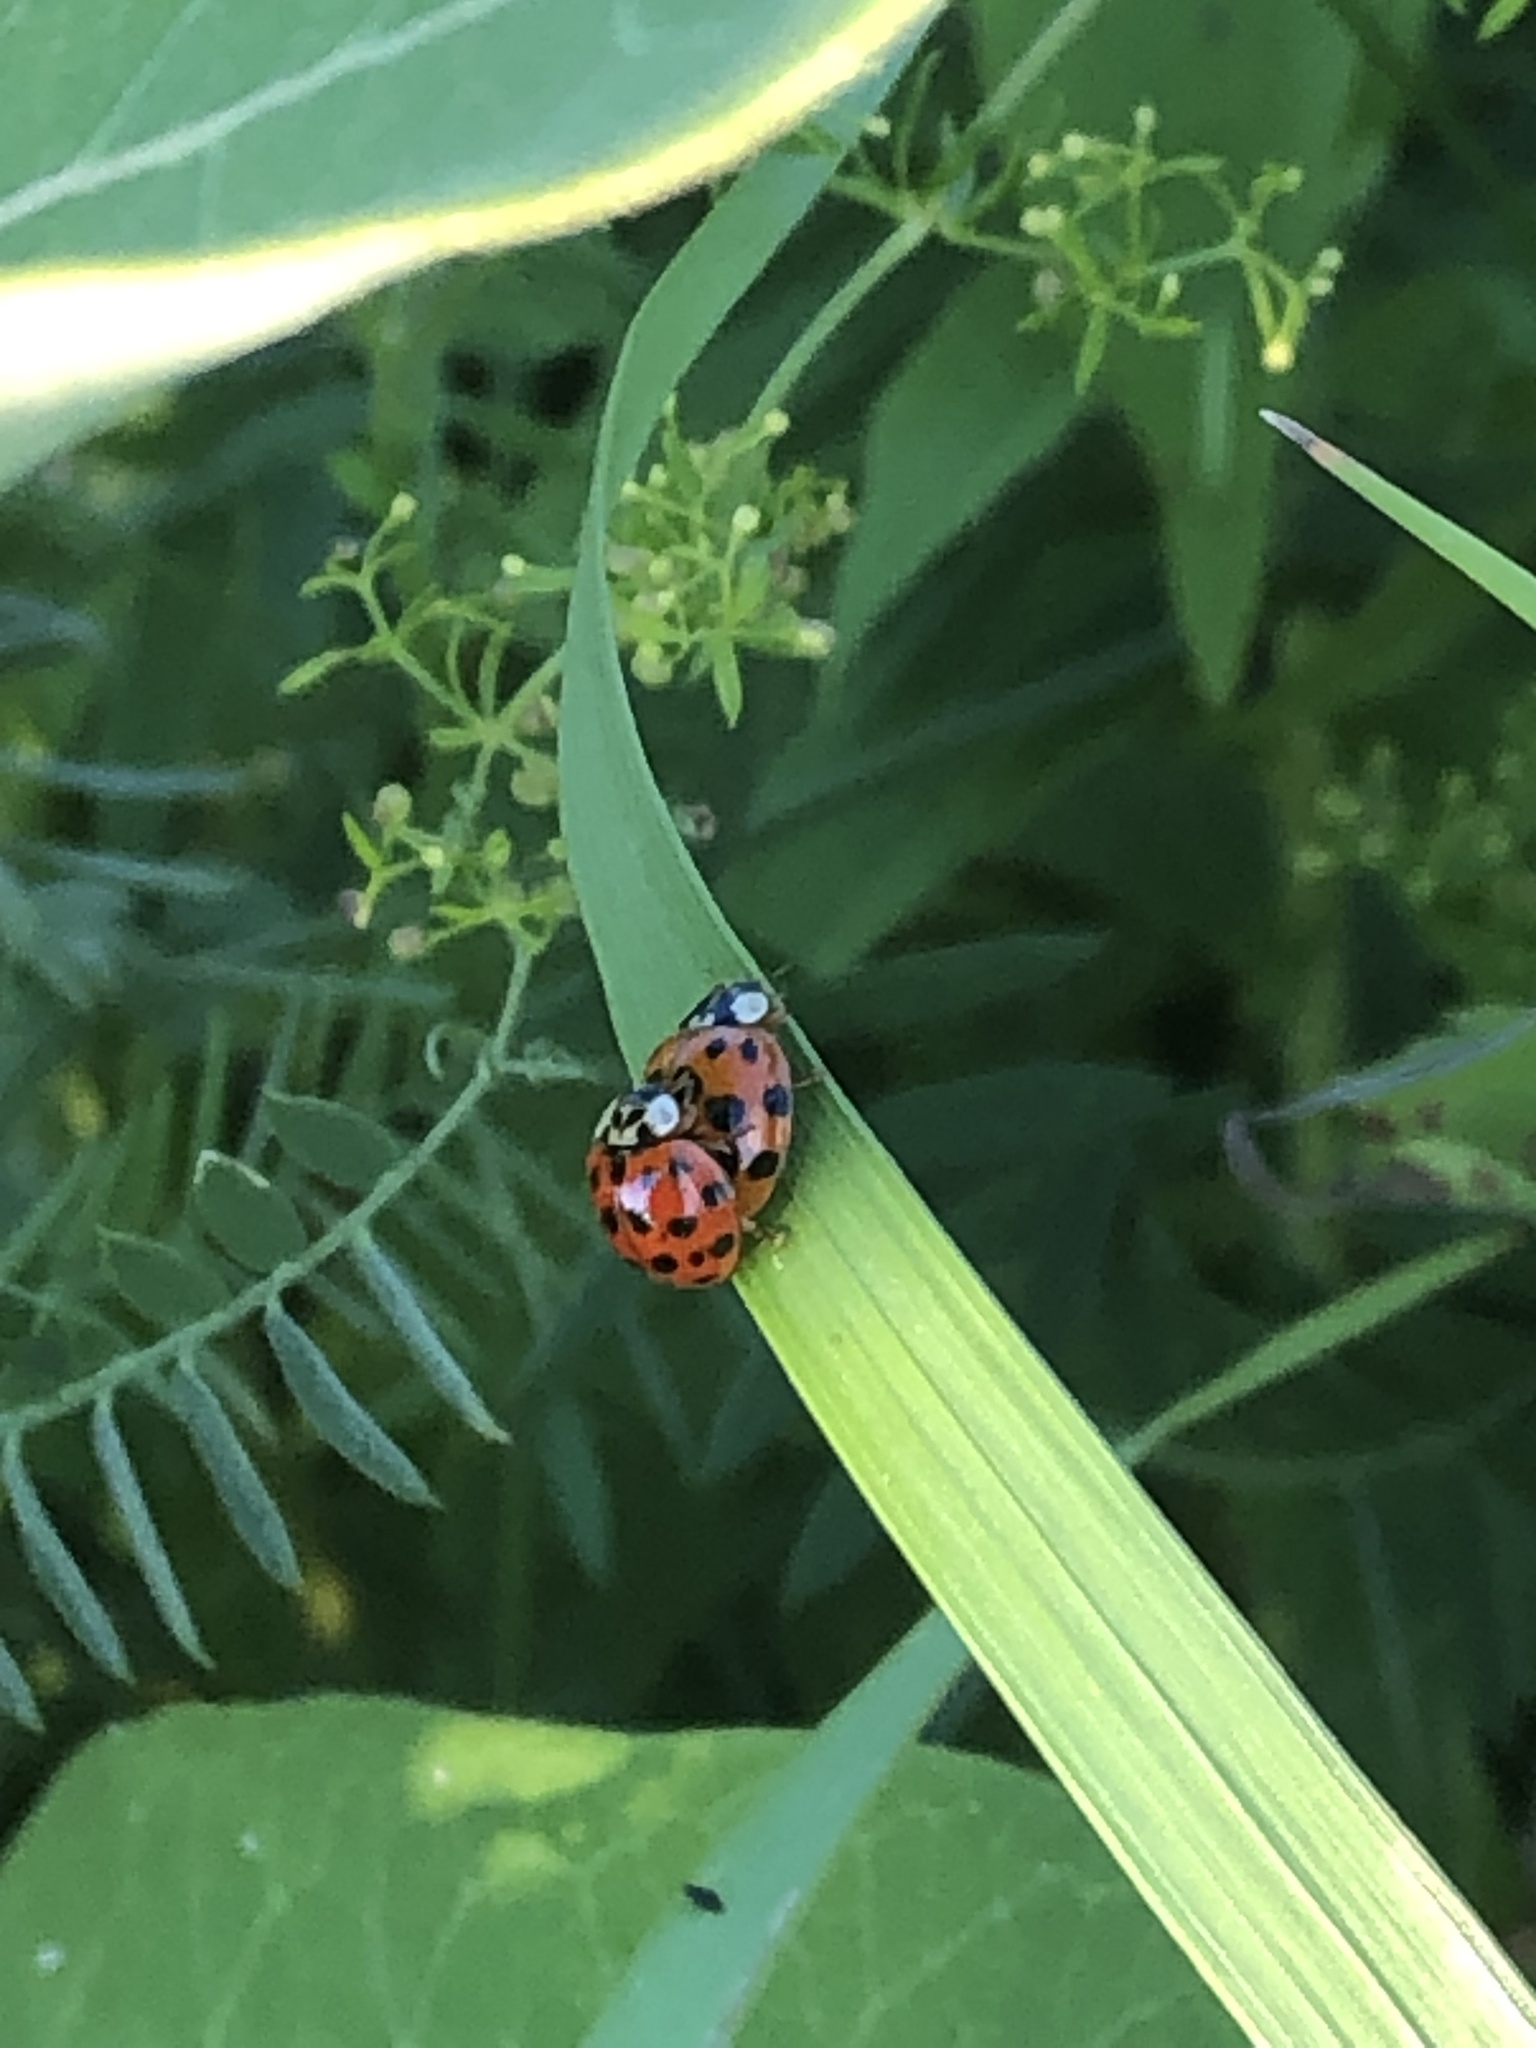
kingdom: Animalia
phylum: Arthropoda
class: Insecta
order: Coleoptera
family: Coccinellidae
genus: Harmonia
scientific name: Harmonia axyridis
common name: Harlequin ladybird
